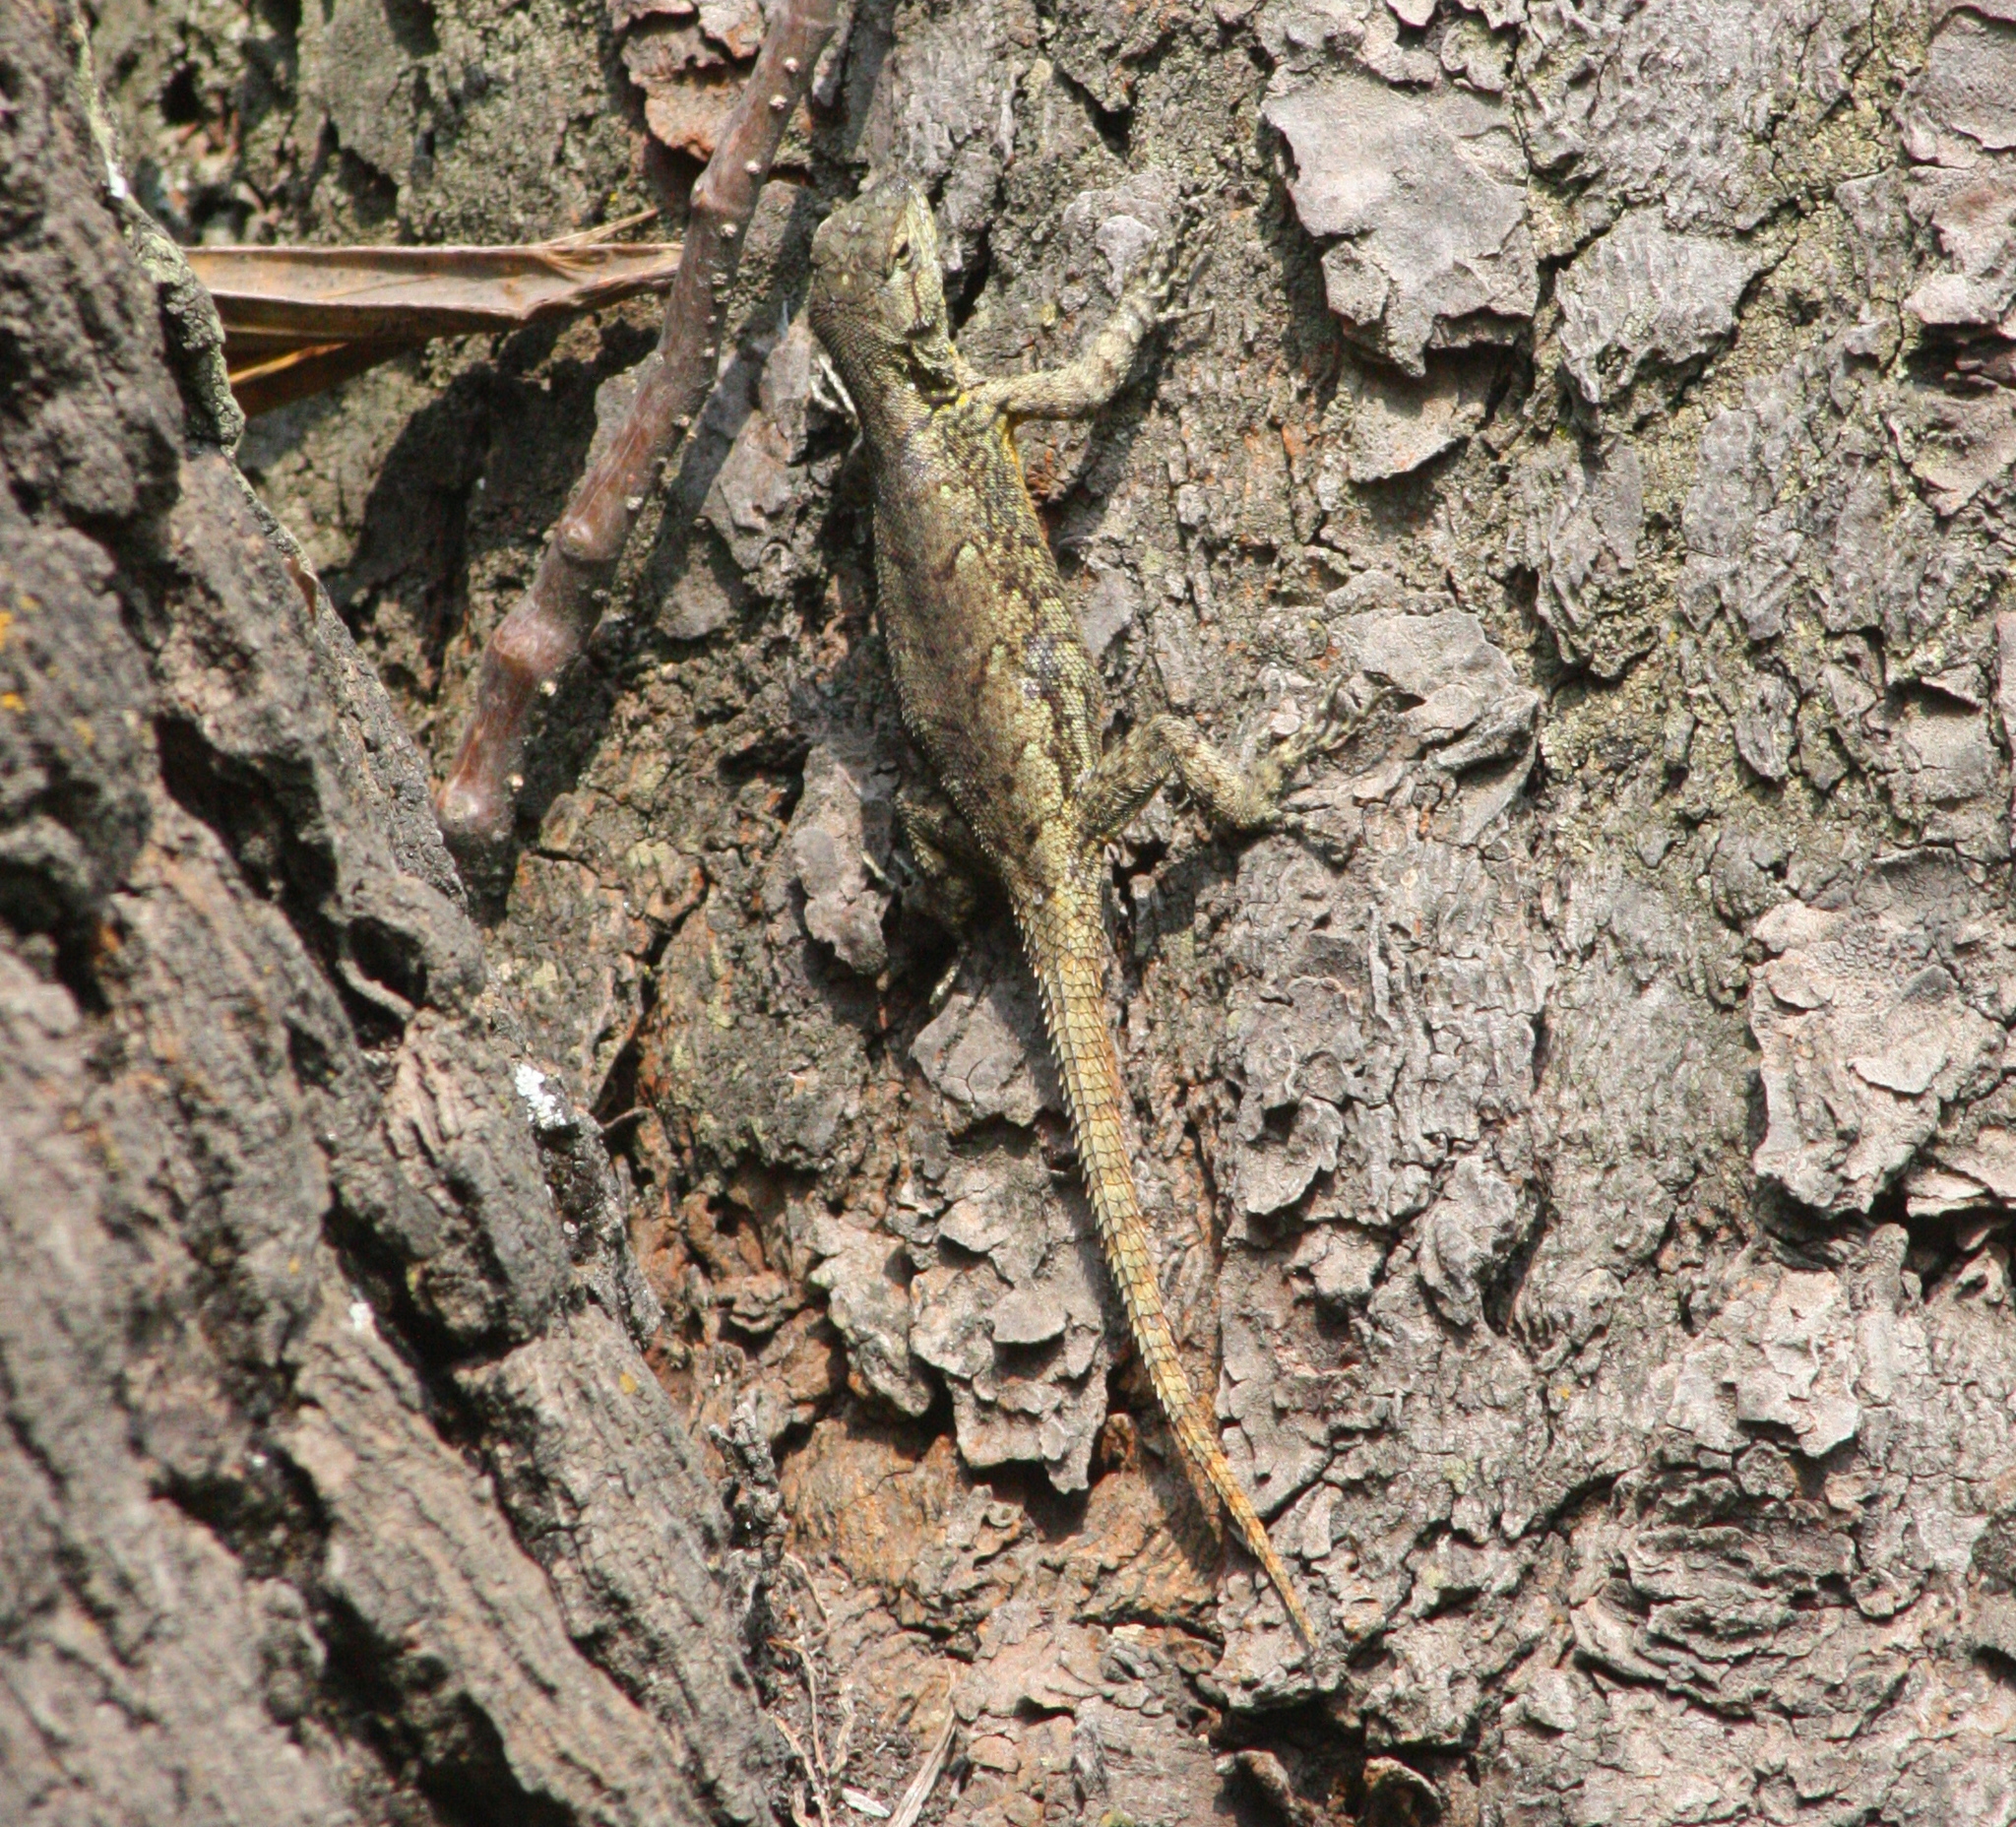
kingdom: Animalia
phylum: Chordata
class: Squamata
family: Phrynosomatidae
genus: Sceloporus
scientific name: Sceloporus grammicus
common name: Mesquite lizard
